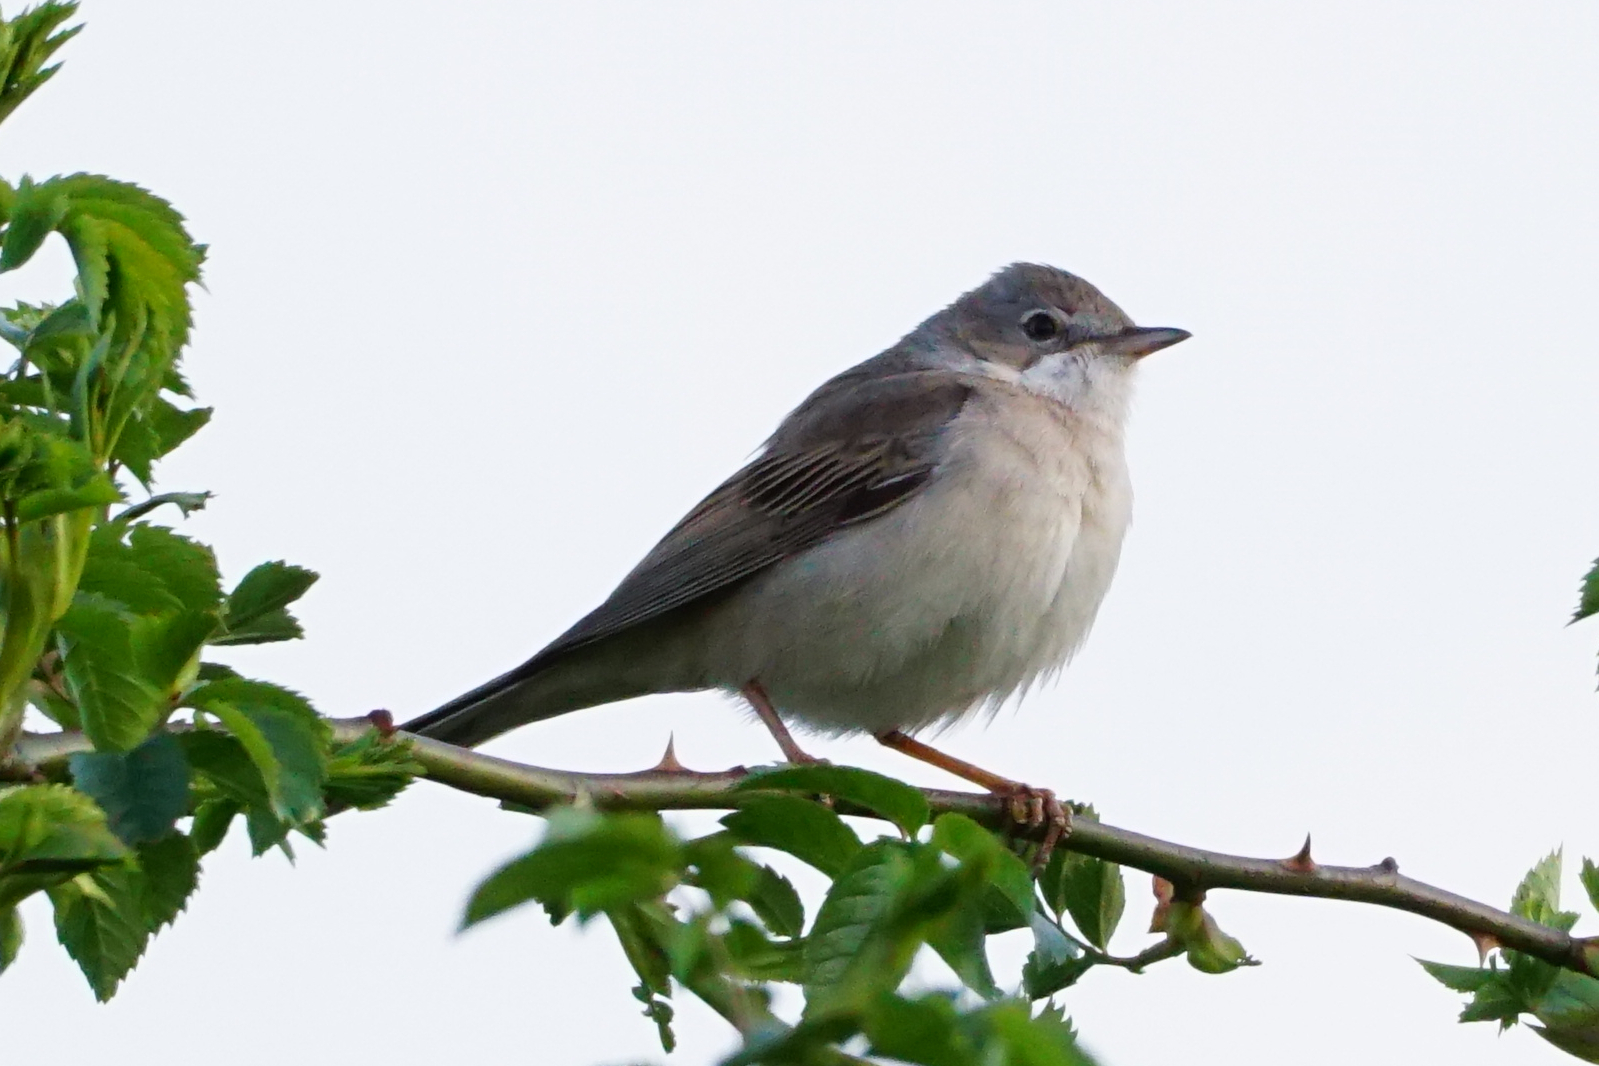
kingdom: Animalia
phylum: Chordata
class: Aves
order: Passeriformes
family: Sylviidae
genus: Sylvia
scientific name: Sylvia communis
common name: Common whitethroat
